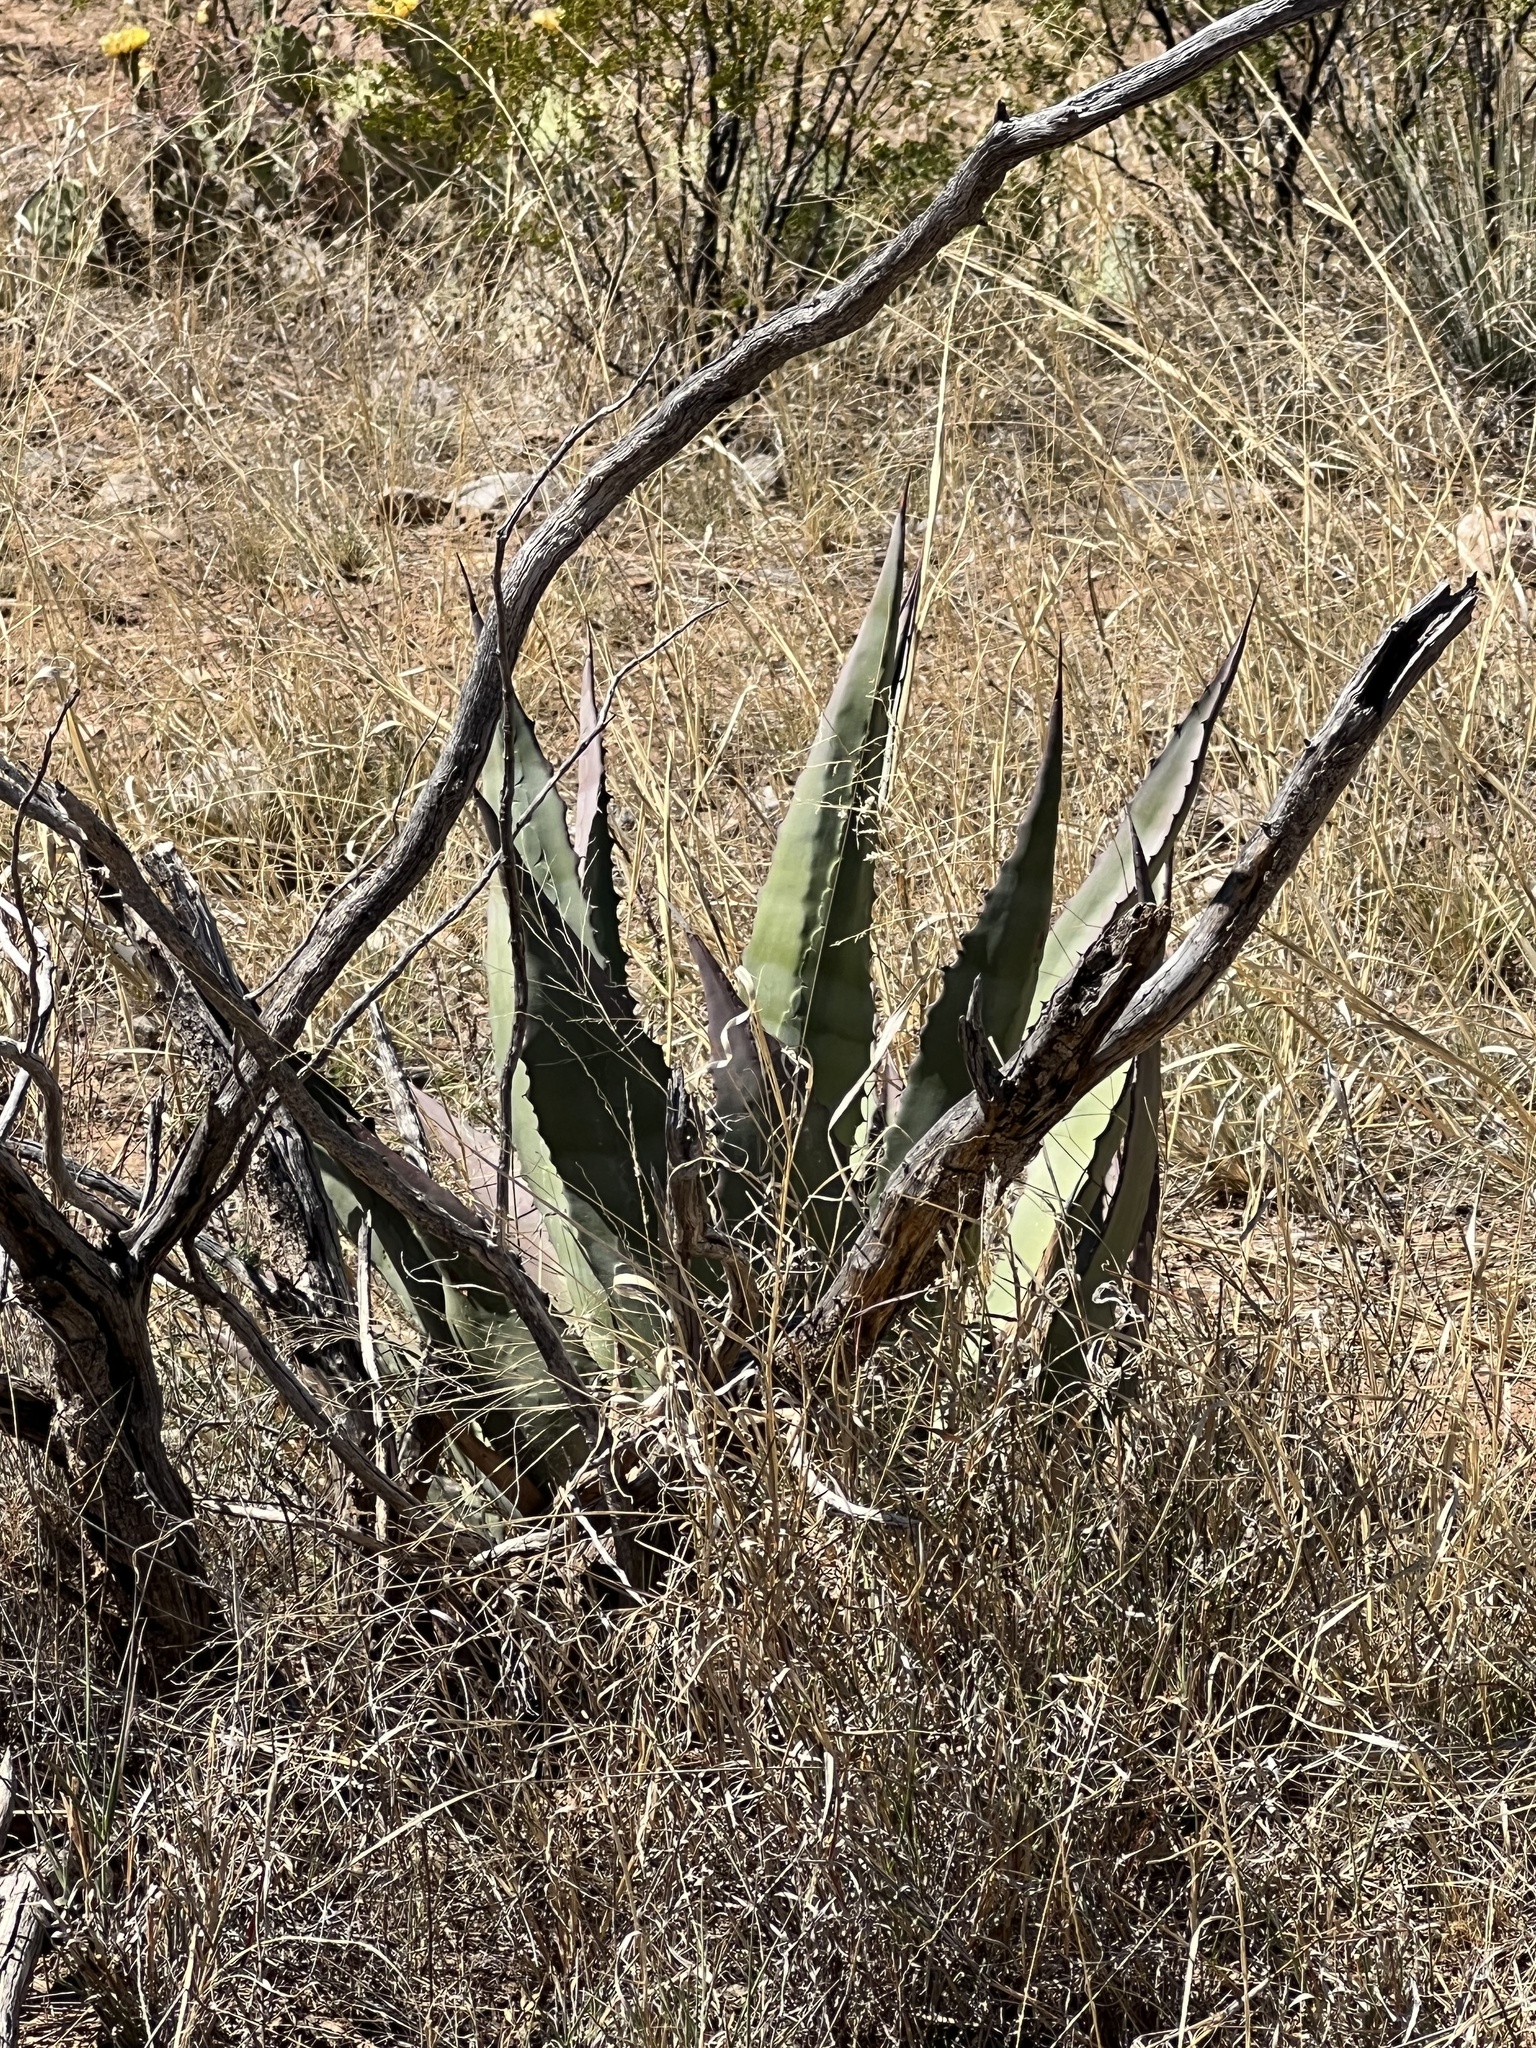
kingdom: Plantae
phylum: Tracheophyta
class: Liliopsida
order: Asparagales
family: Asparagaceae
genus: Agave
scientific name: Agave palmeri
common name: Palmer agave
